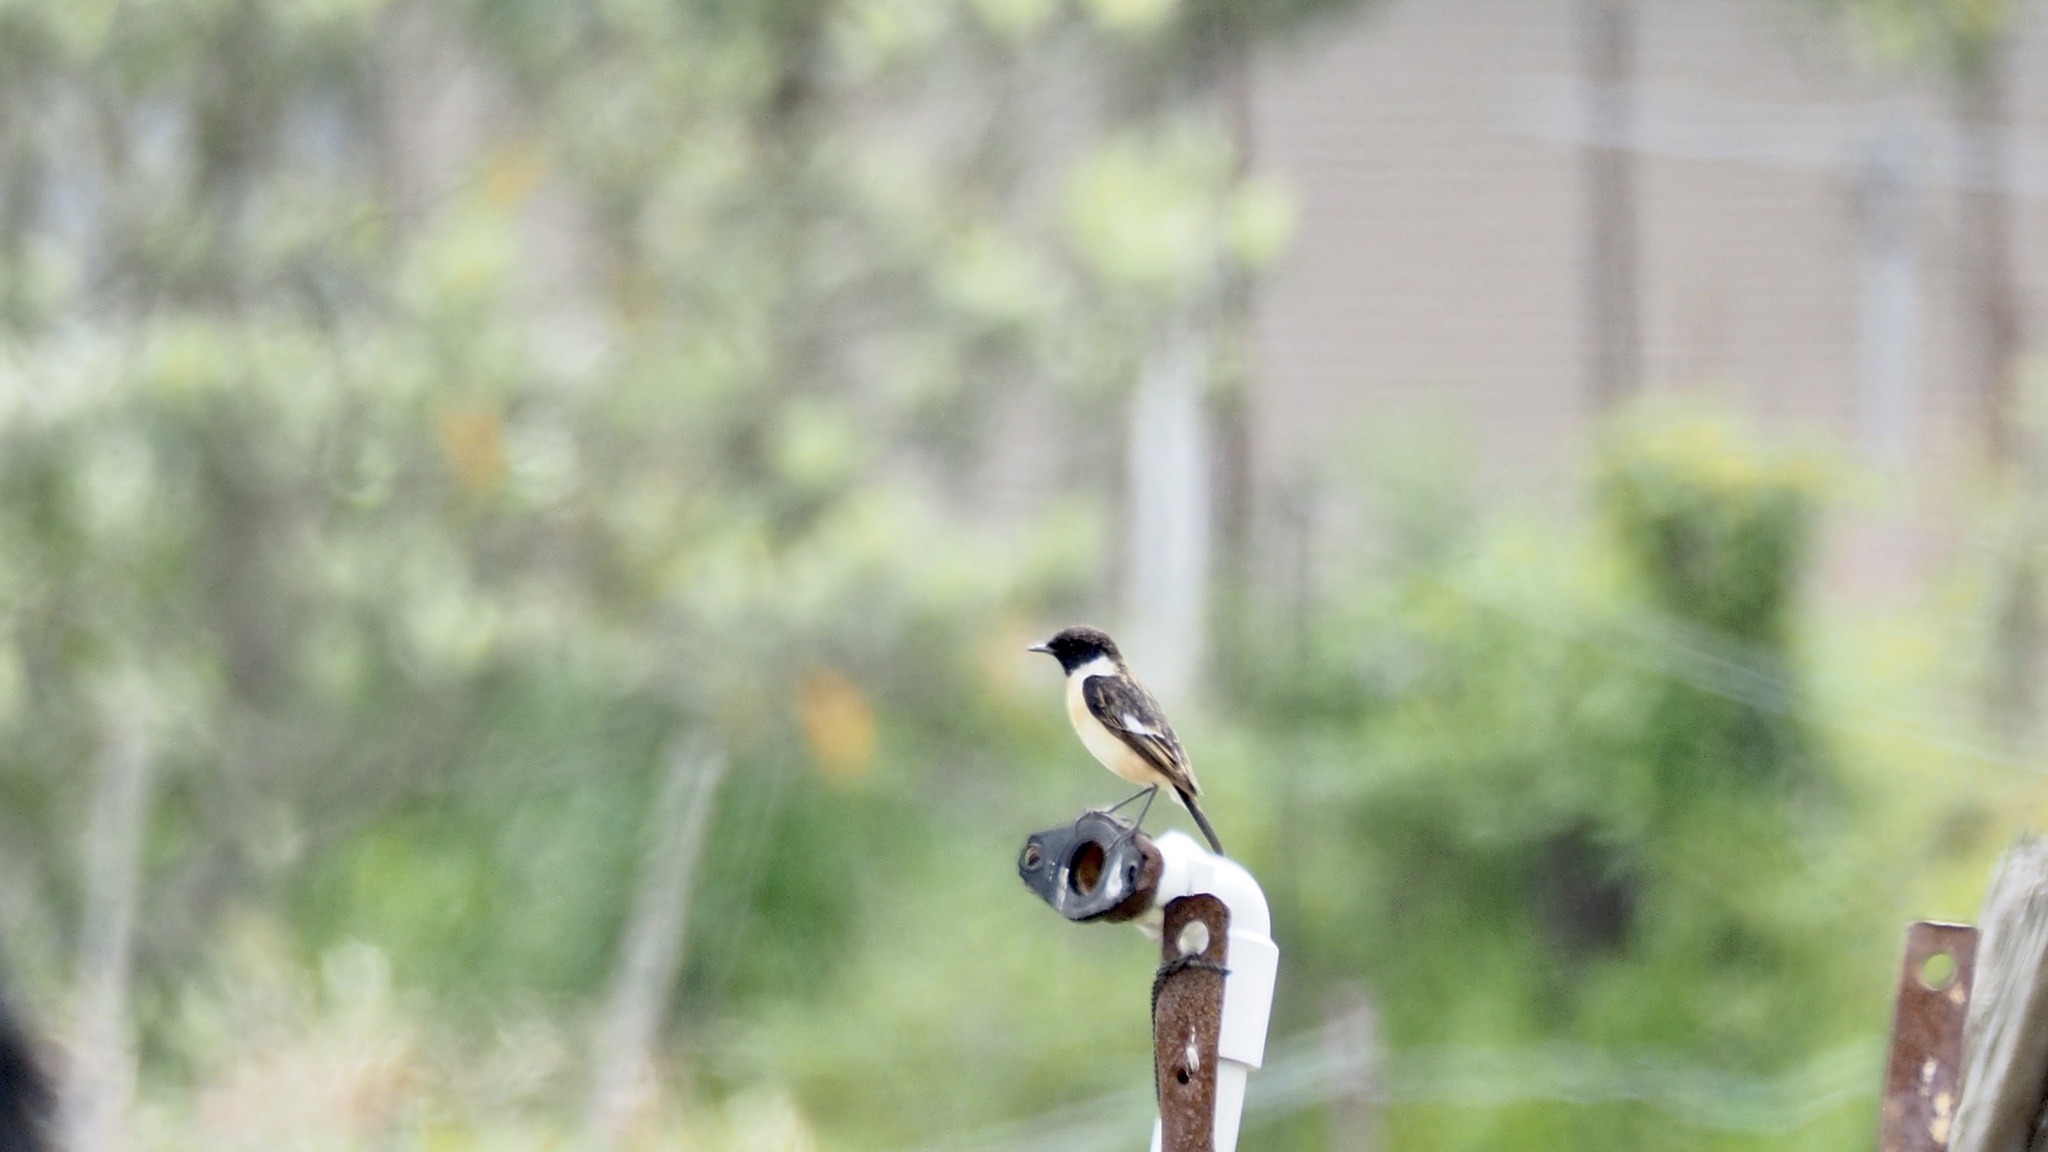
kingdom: Animalia
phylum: Chordata
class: Aves
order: Passeriformes
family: Muscicapidae
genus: Saxicola
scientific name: Saxicola stejnegeri
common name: Stejneger's stonechat
